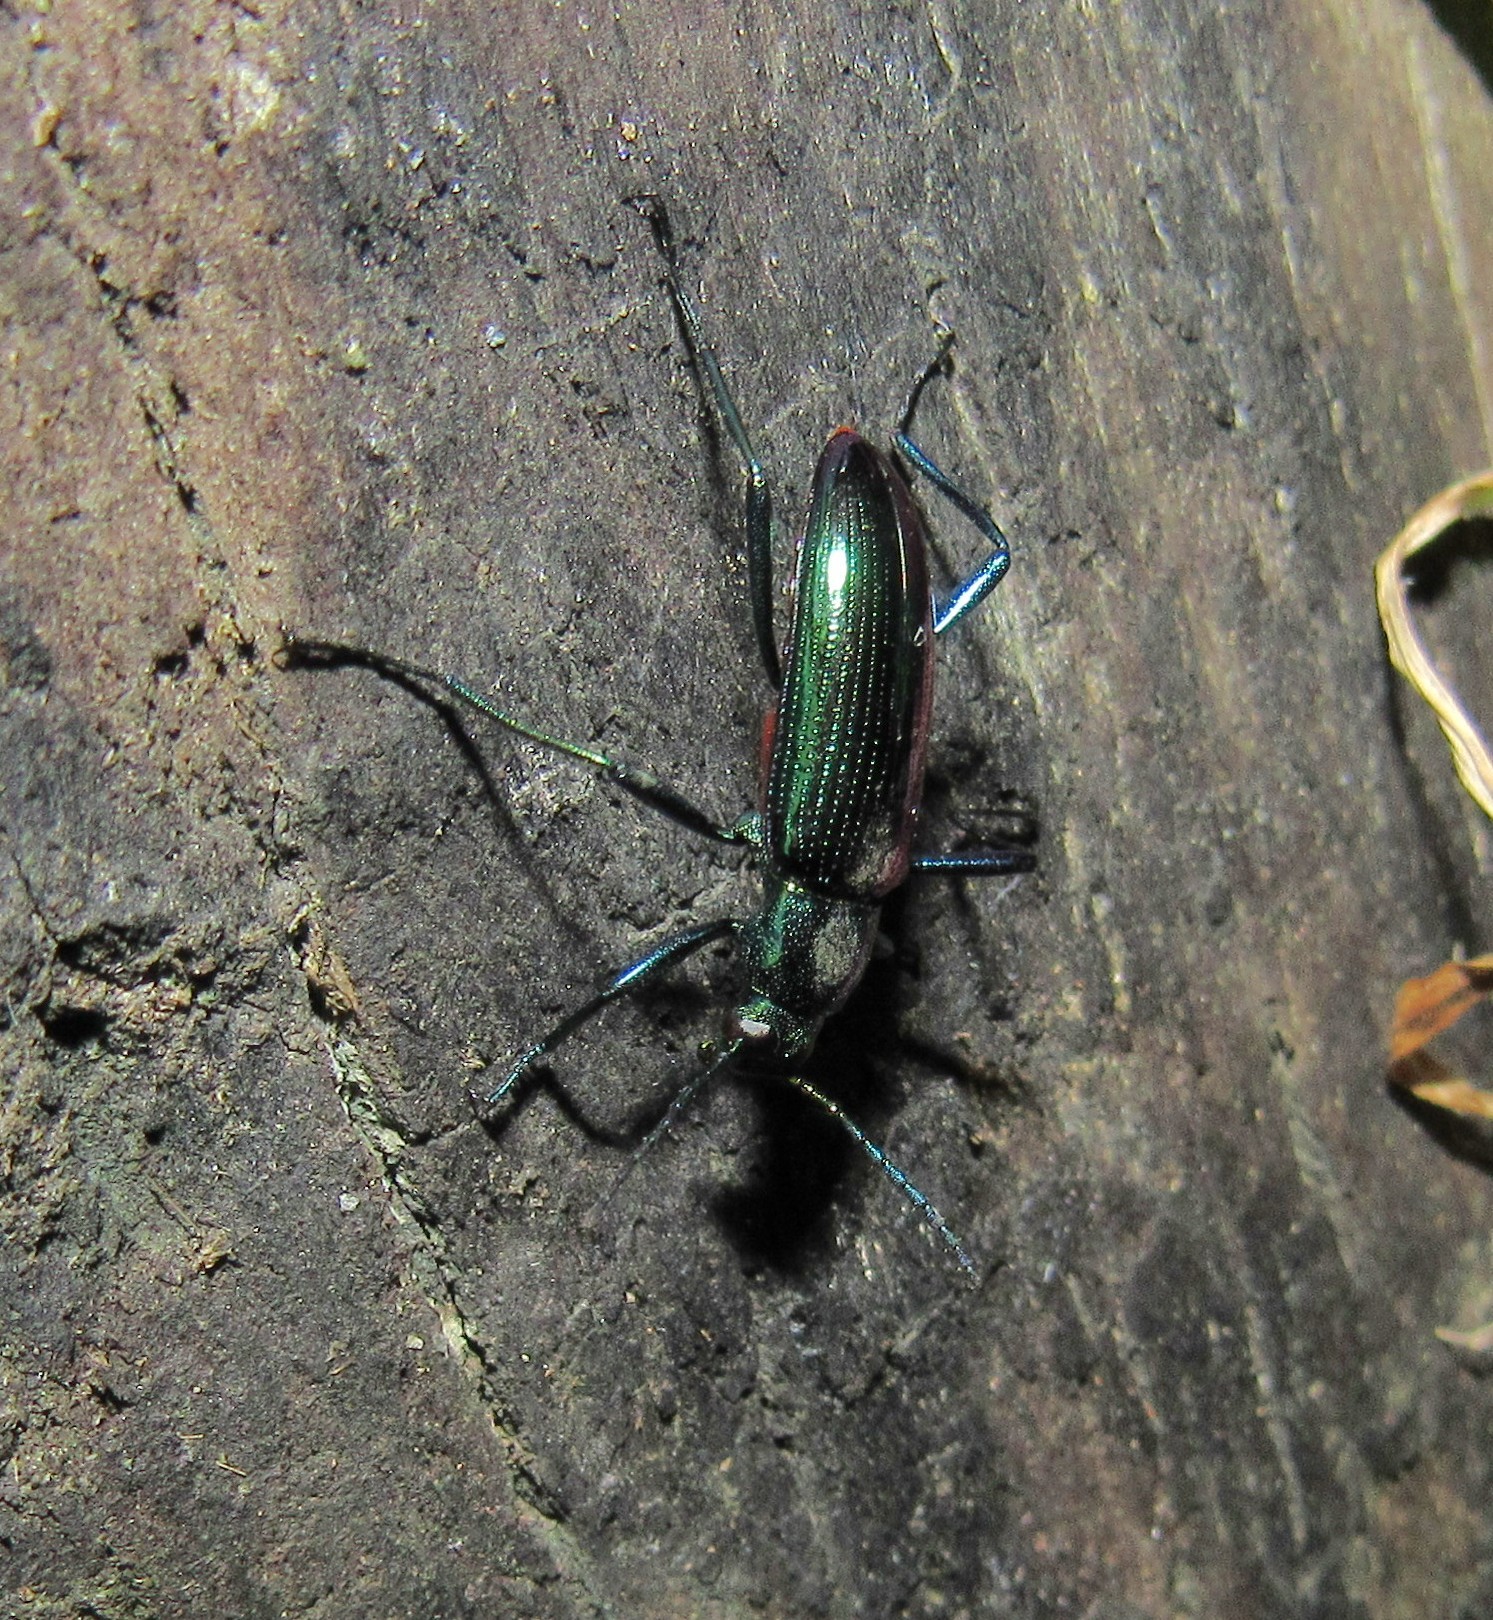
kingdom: Animalia
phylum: Arthropoda
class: Insecta
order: Coleoptera
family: Tenebrionidae
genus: Strongylium
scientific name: Strongylium
